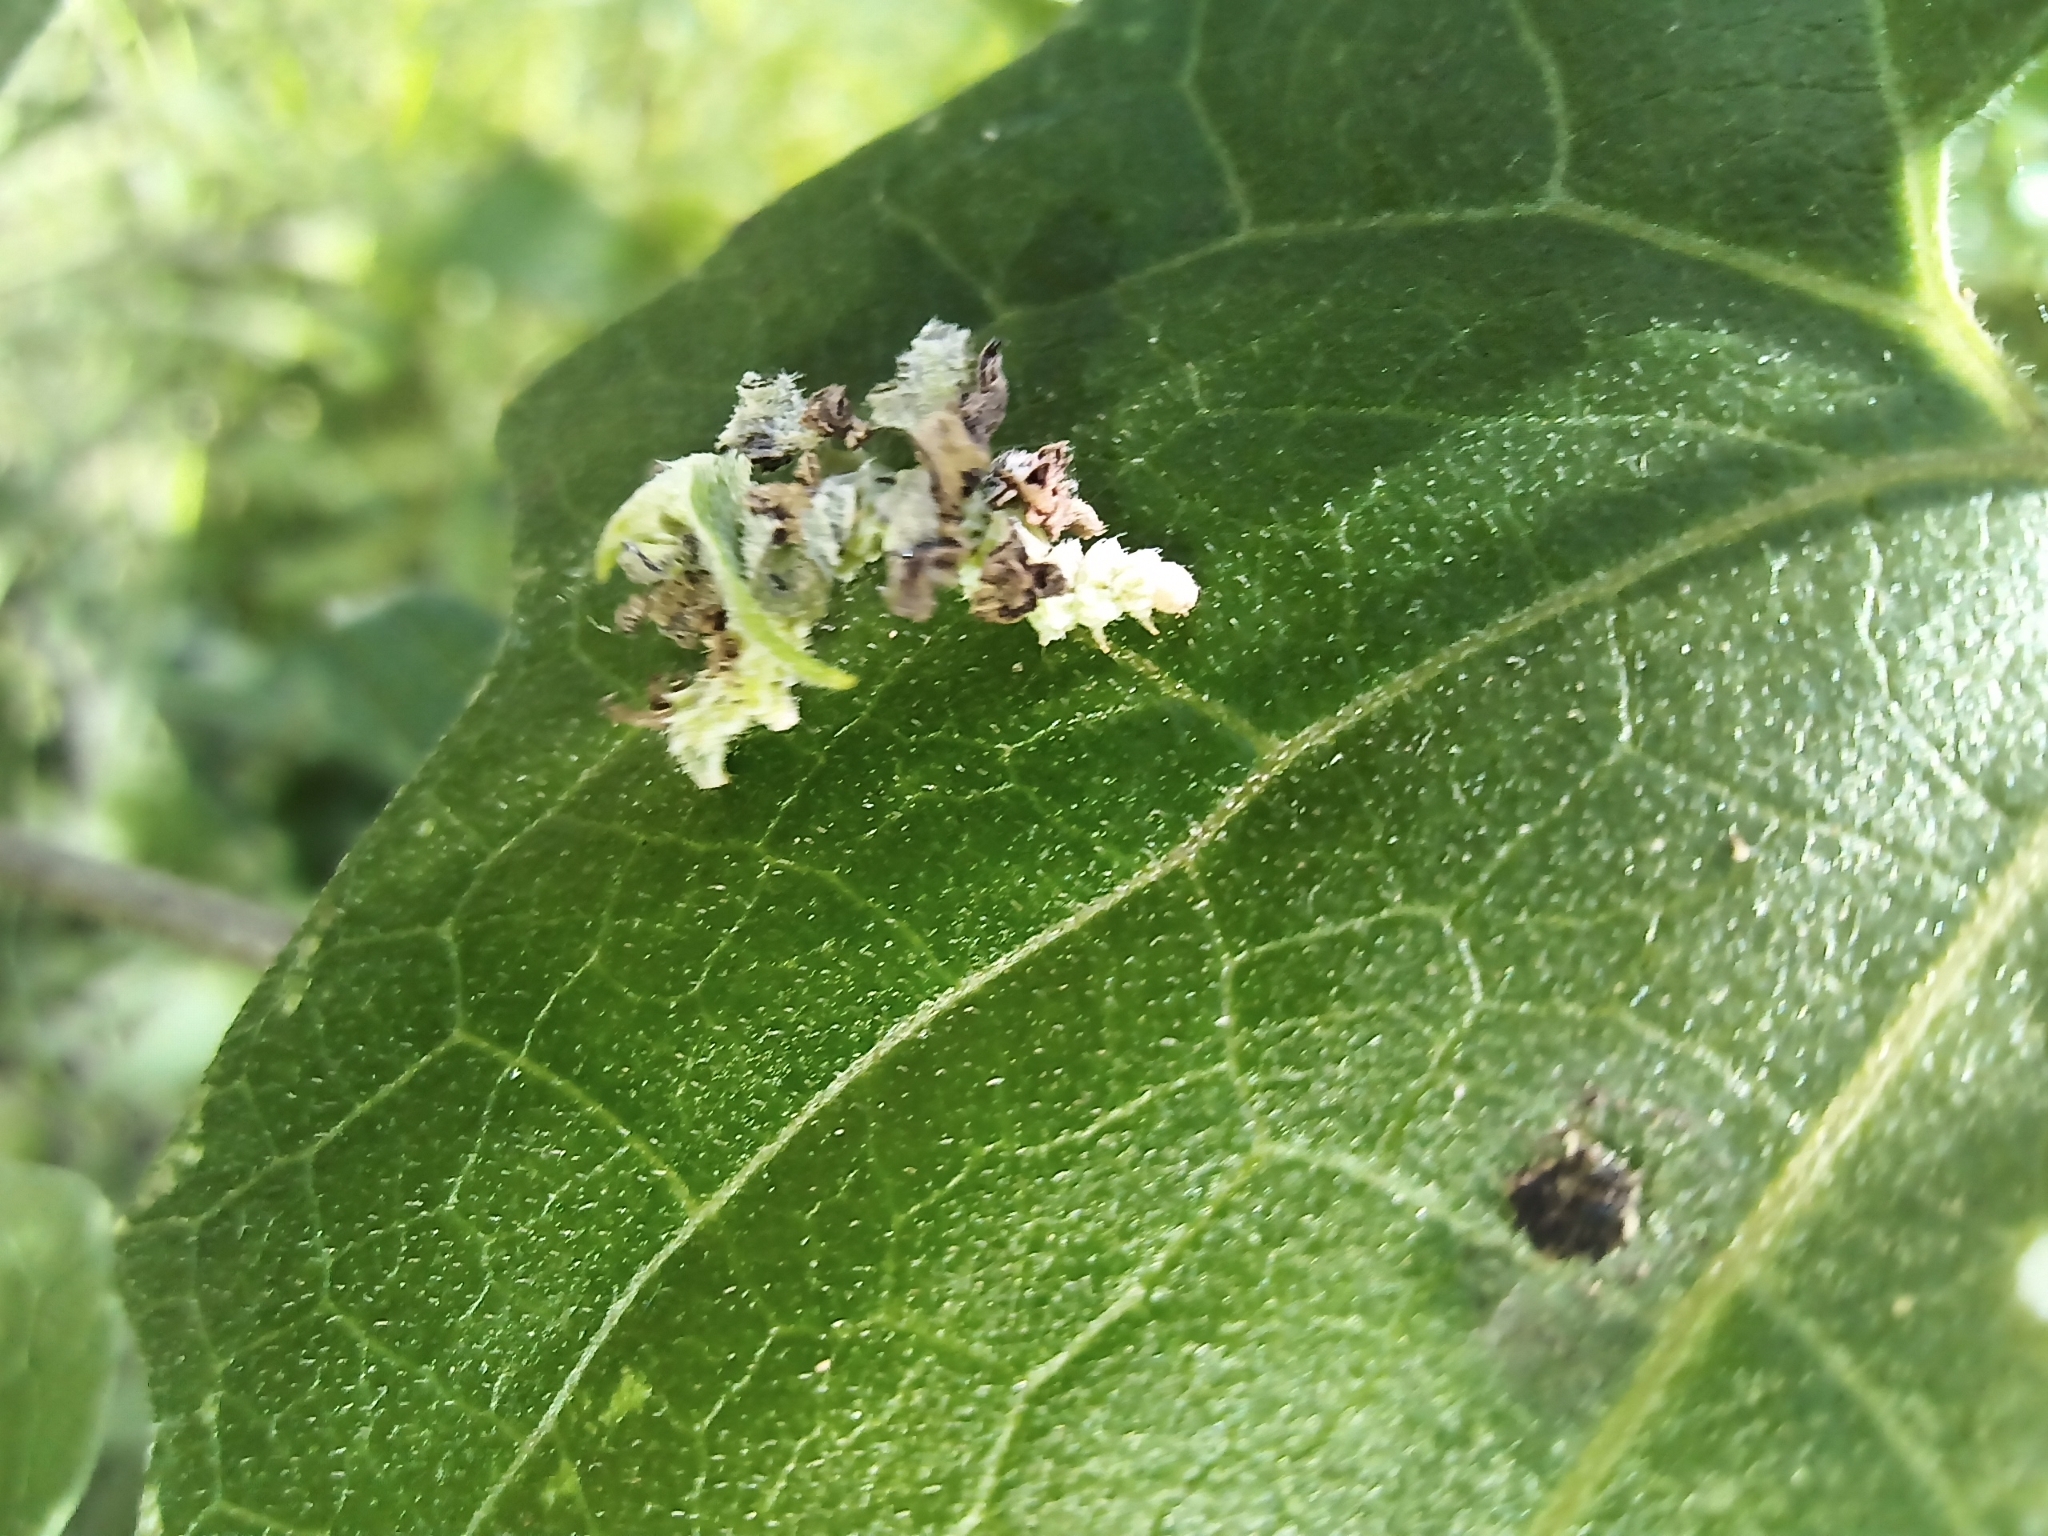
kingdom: Animalia
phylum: Arthropoda
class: Insecta
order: Lepidoptera
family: Geometridae
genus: Synchlora
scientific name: Synchlora
